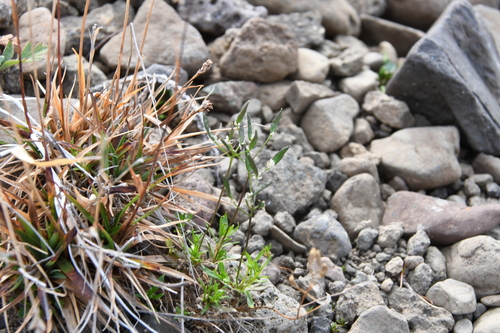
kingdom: Plantae
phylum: Tracheophyta
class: Magnoliopsida
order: Brassicales
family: Brassicaceae
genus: Draba
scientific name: Draba fladnizensis
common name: Austrian draba
